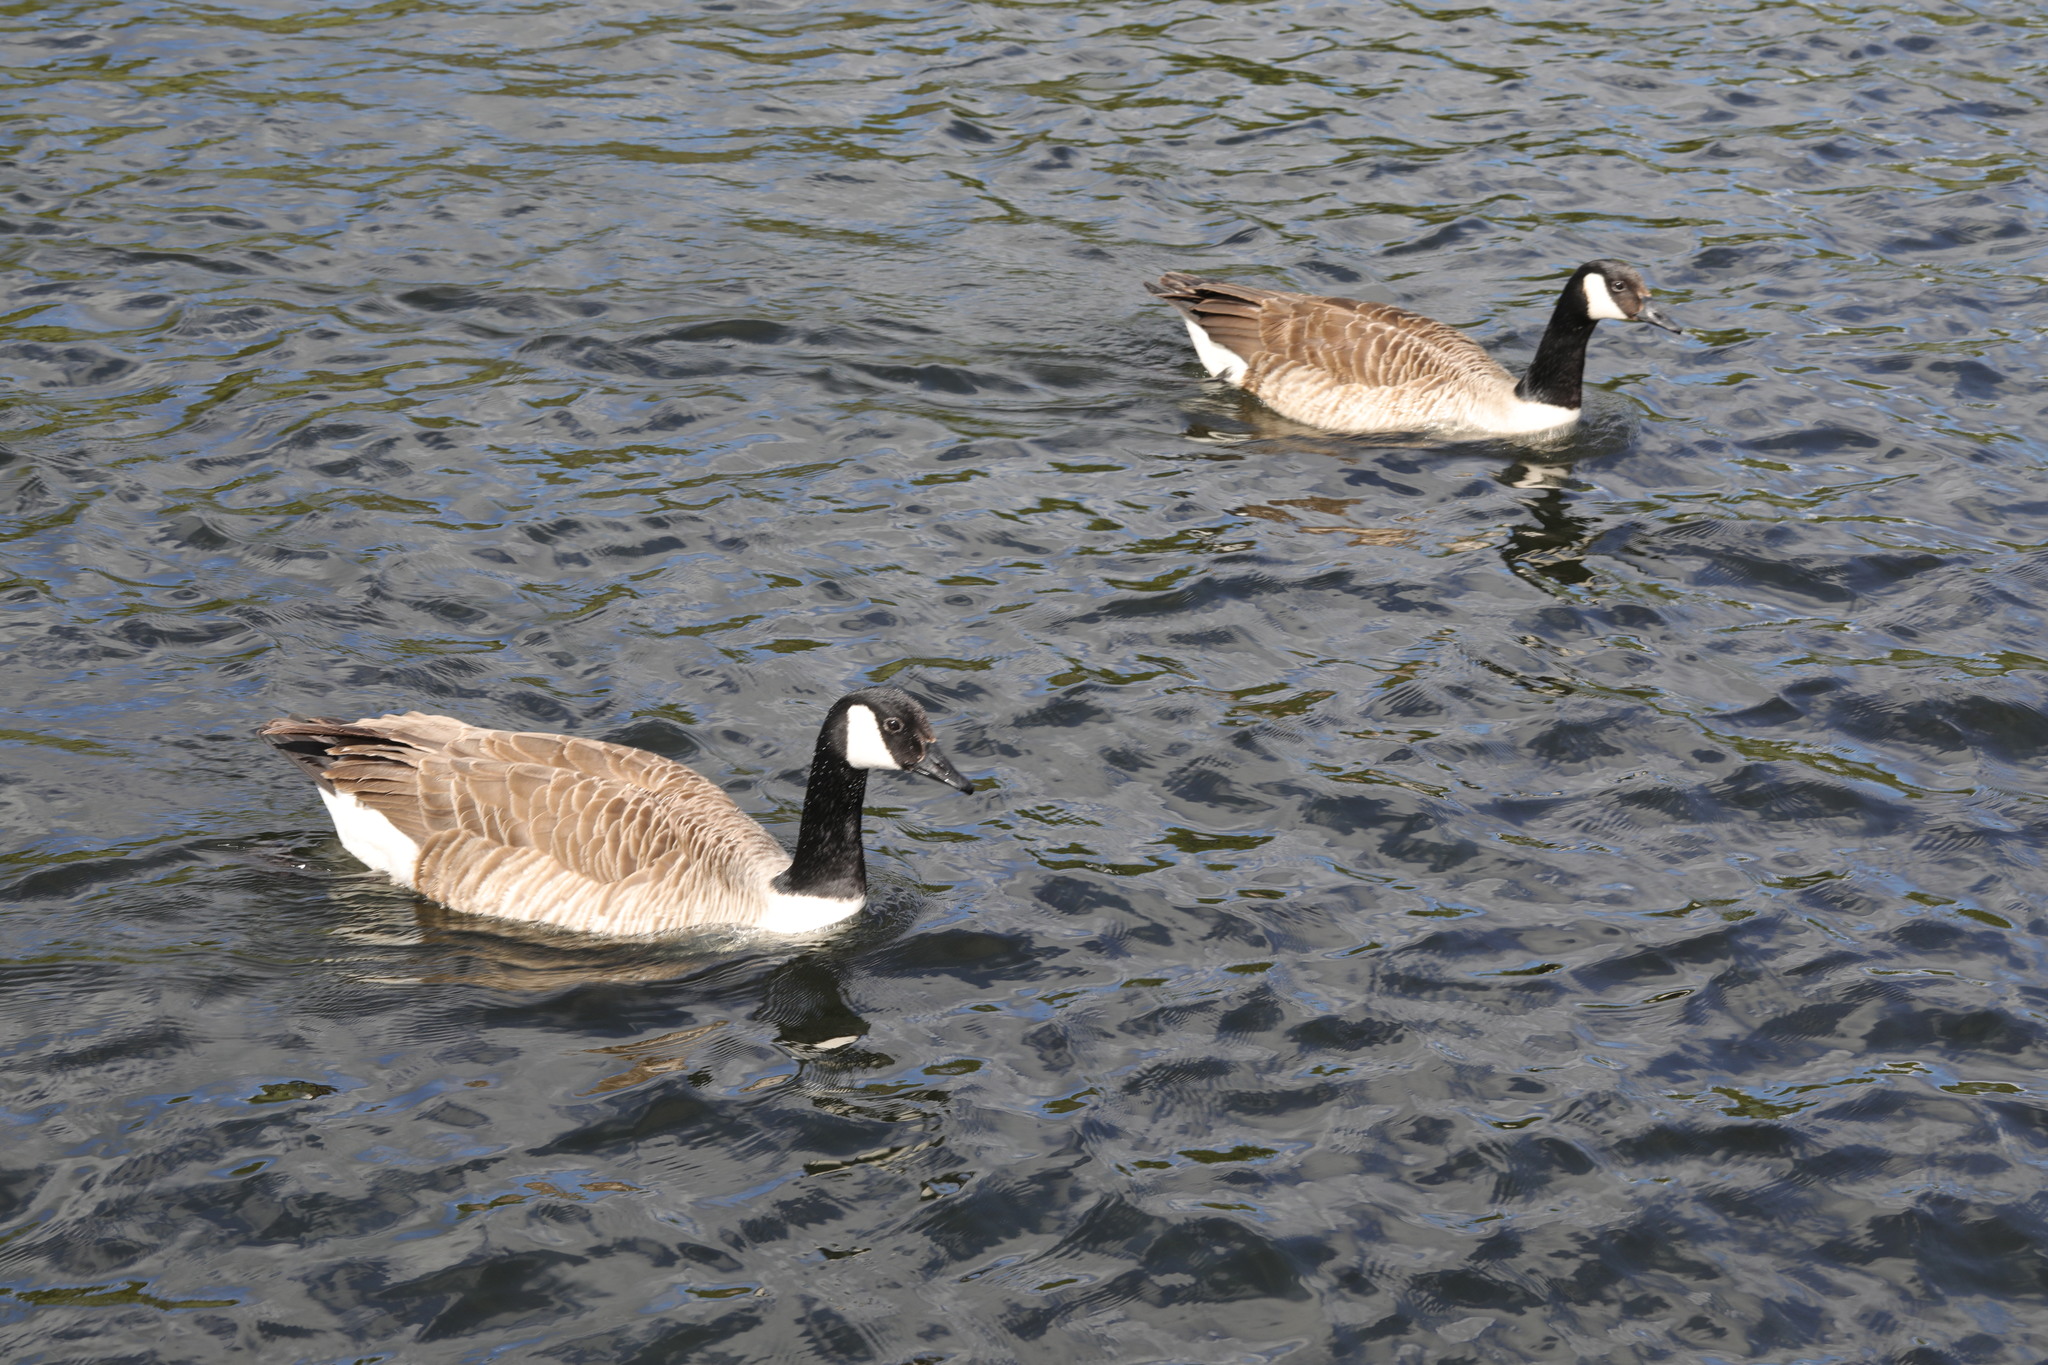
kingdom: Animalia
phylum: Chordata
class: Aves
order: Anseriformes
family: Anatidae
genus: Branta
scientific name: Branta canadensis
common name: Canada goose
